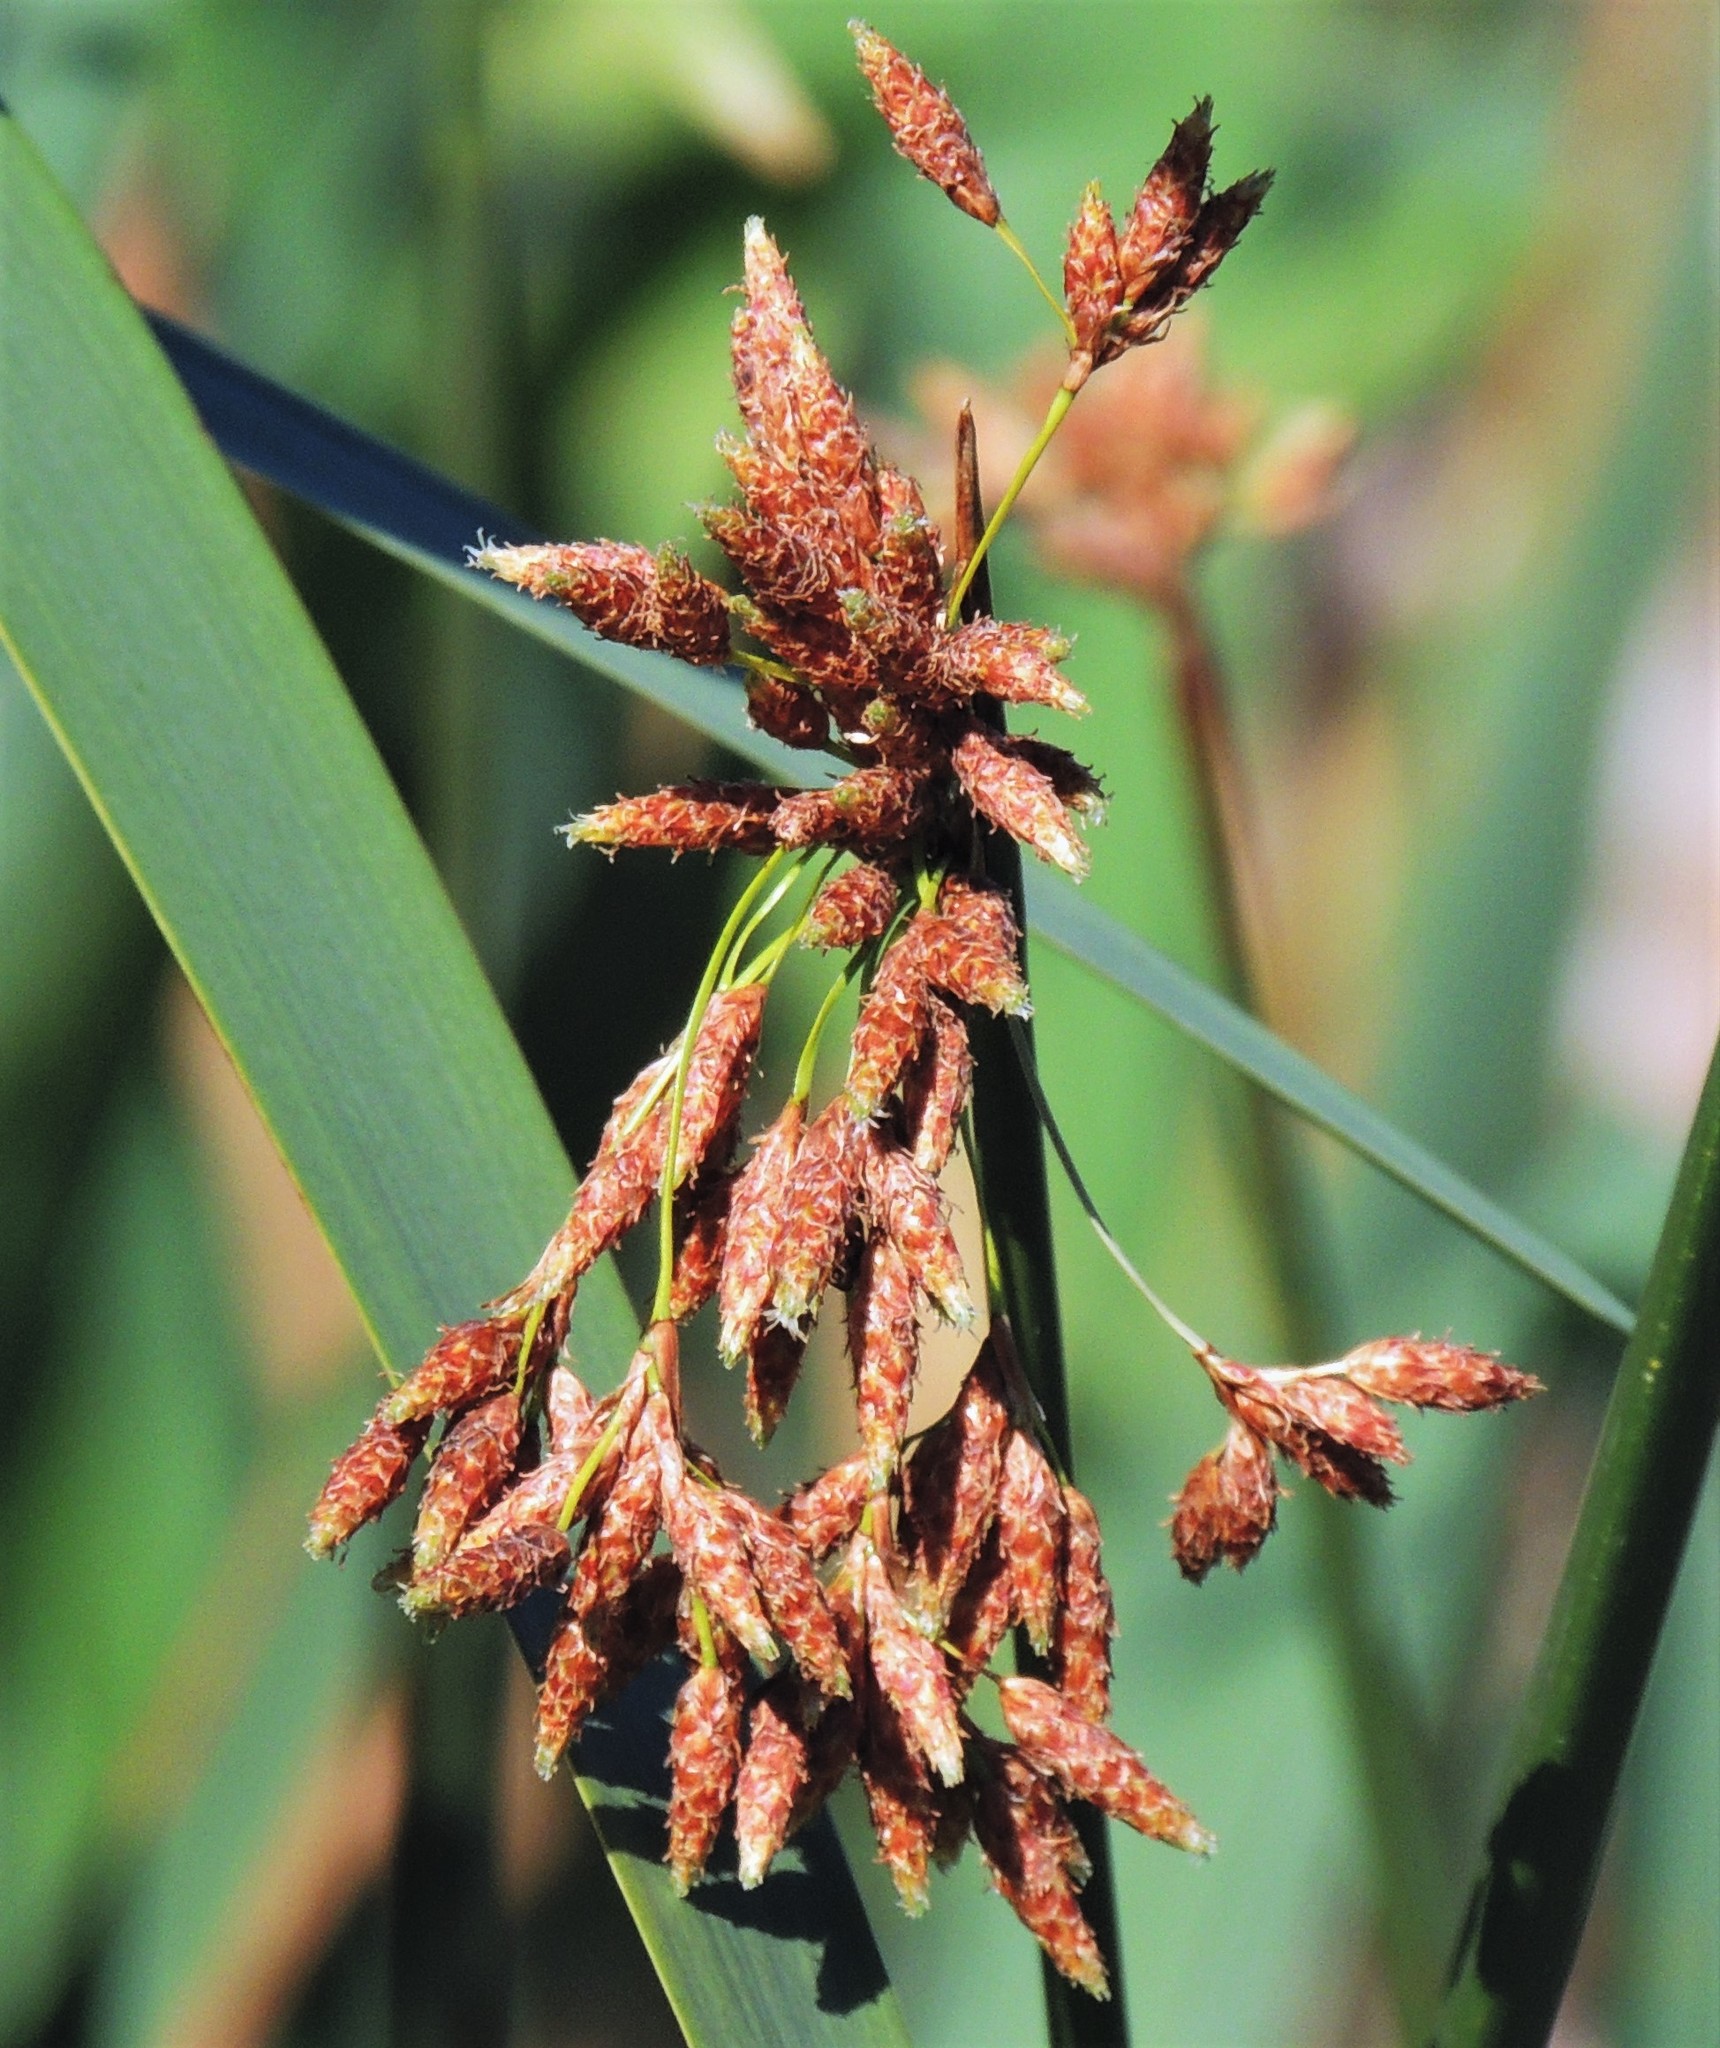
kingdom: Plantae
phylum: Tracheophyta
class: Liliopsida
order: Poales
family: Cyperaceae
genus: Schoenoplectus
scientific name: Schoenoplectus californicus
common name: California bulrush
